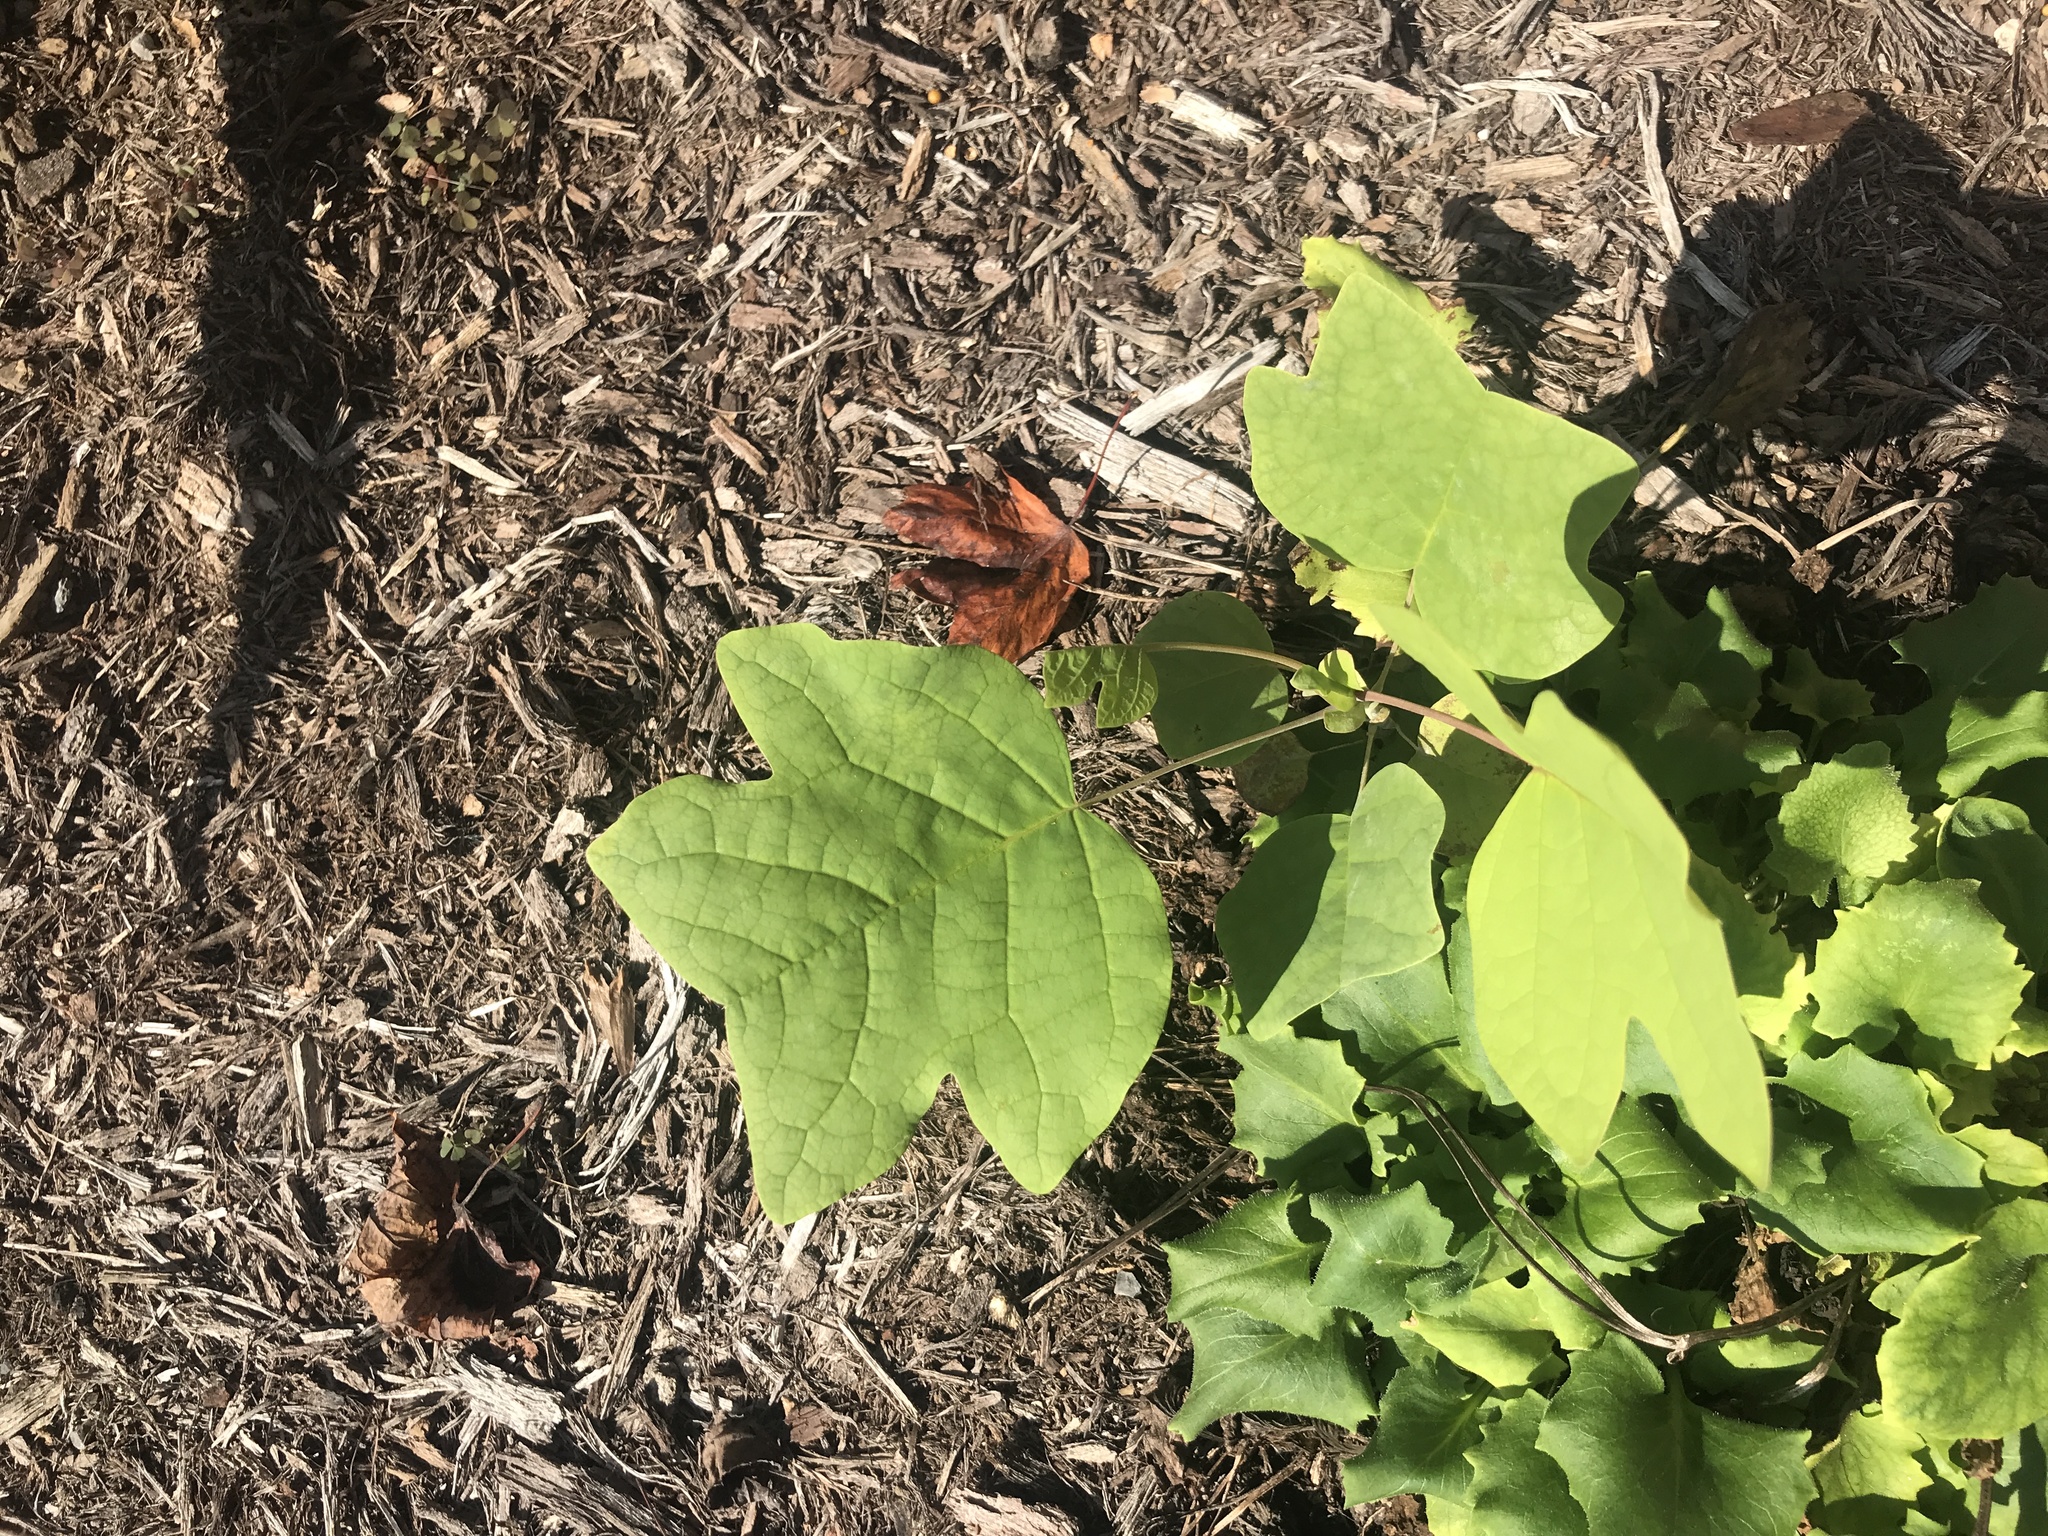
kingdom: Plantae
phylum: Tracheophyta
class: Magnoliopsida
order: Magnoliales
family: Magnoliaceae
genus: Liriodendron
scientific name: Liriodendron tulipifera
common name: Tulip tree
